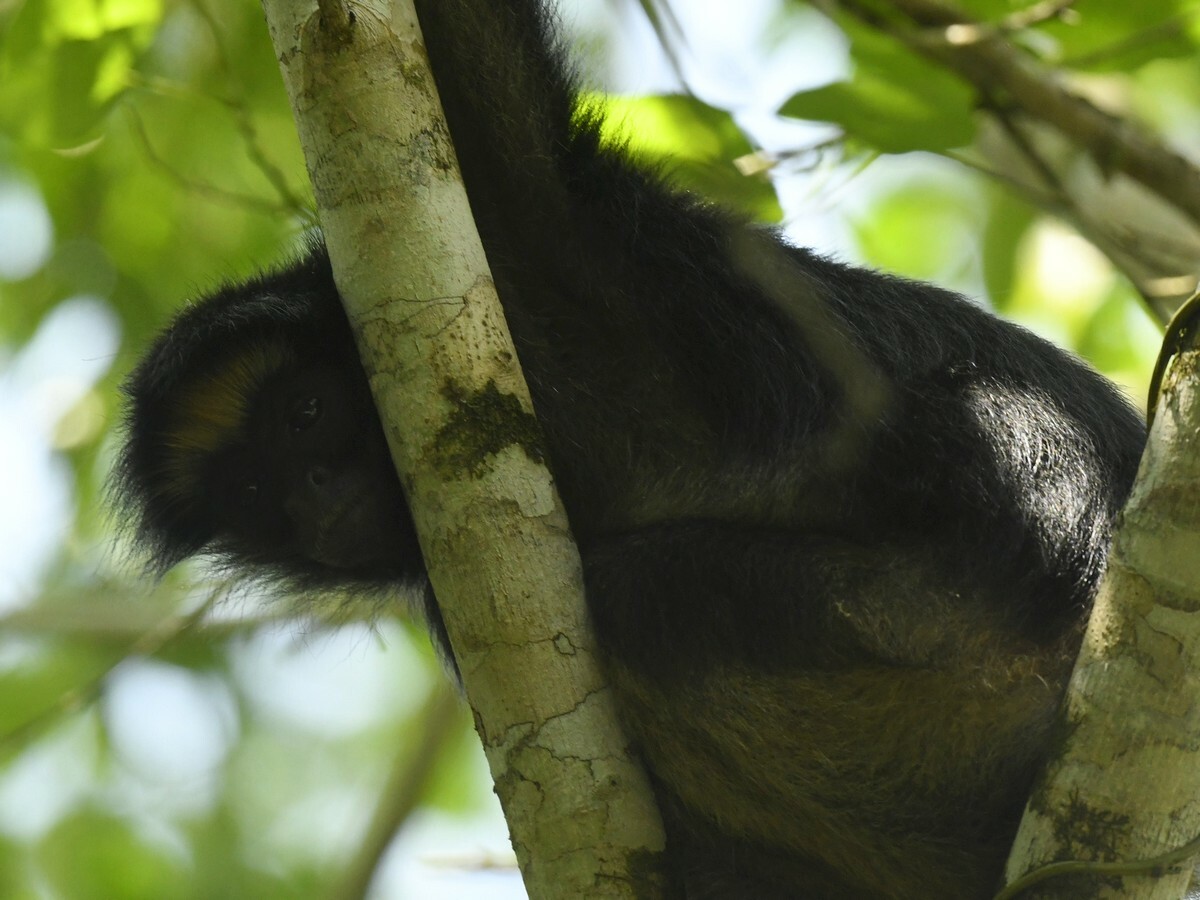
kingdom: Animalia
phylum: Chordata
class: Mammalia
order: Primates
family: Atelidae
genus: Ateles
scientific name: Ateles belzebuth
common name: White-fronted spider monkey
